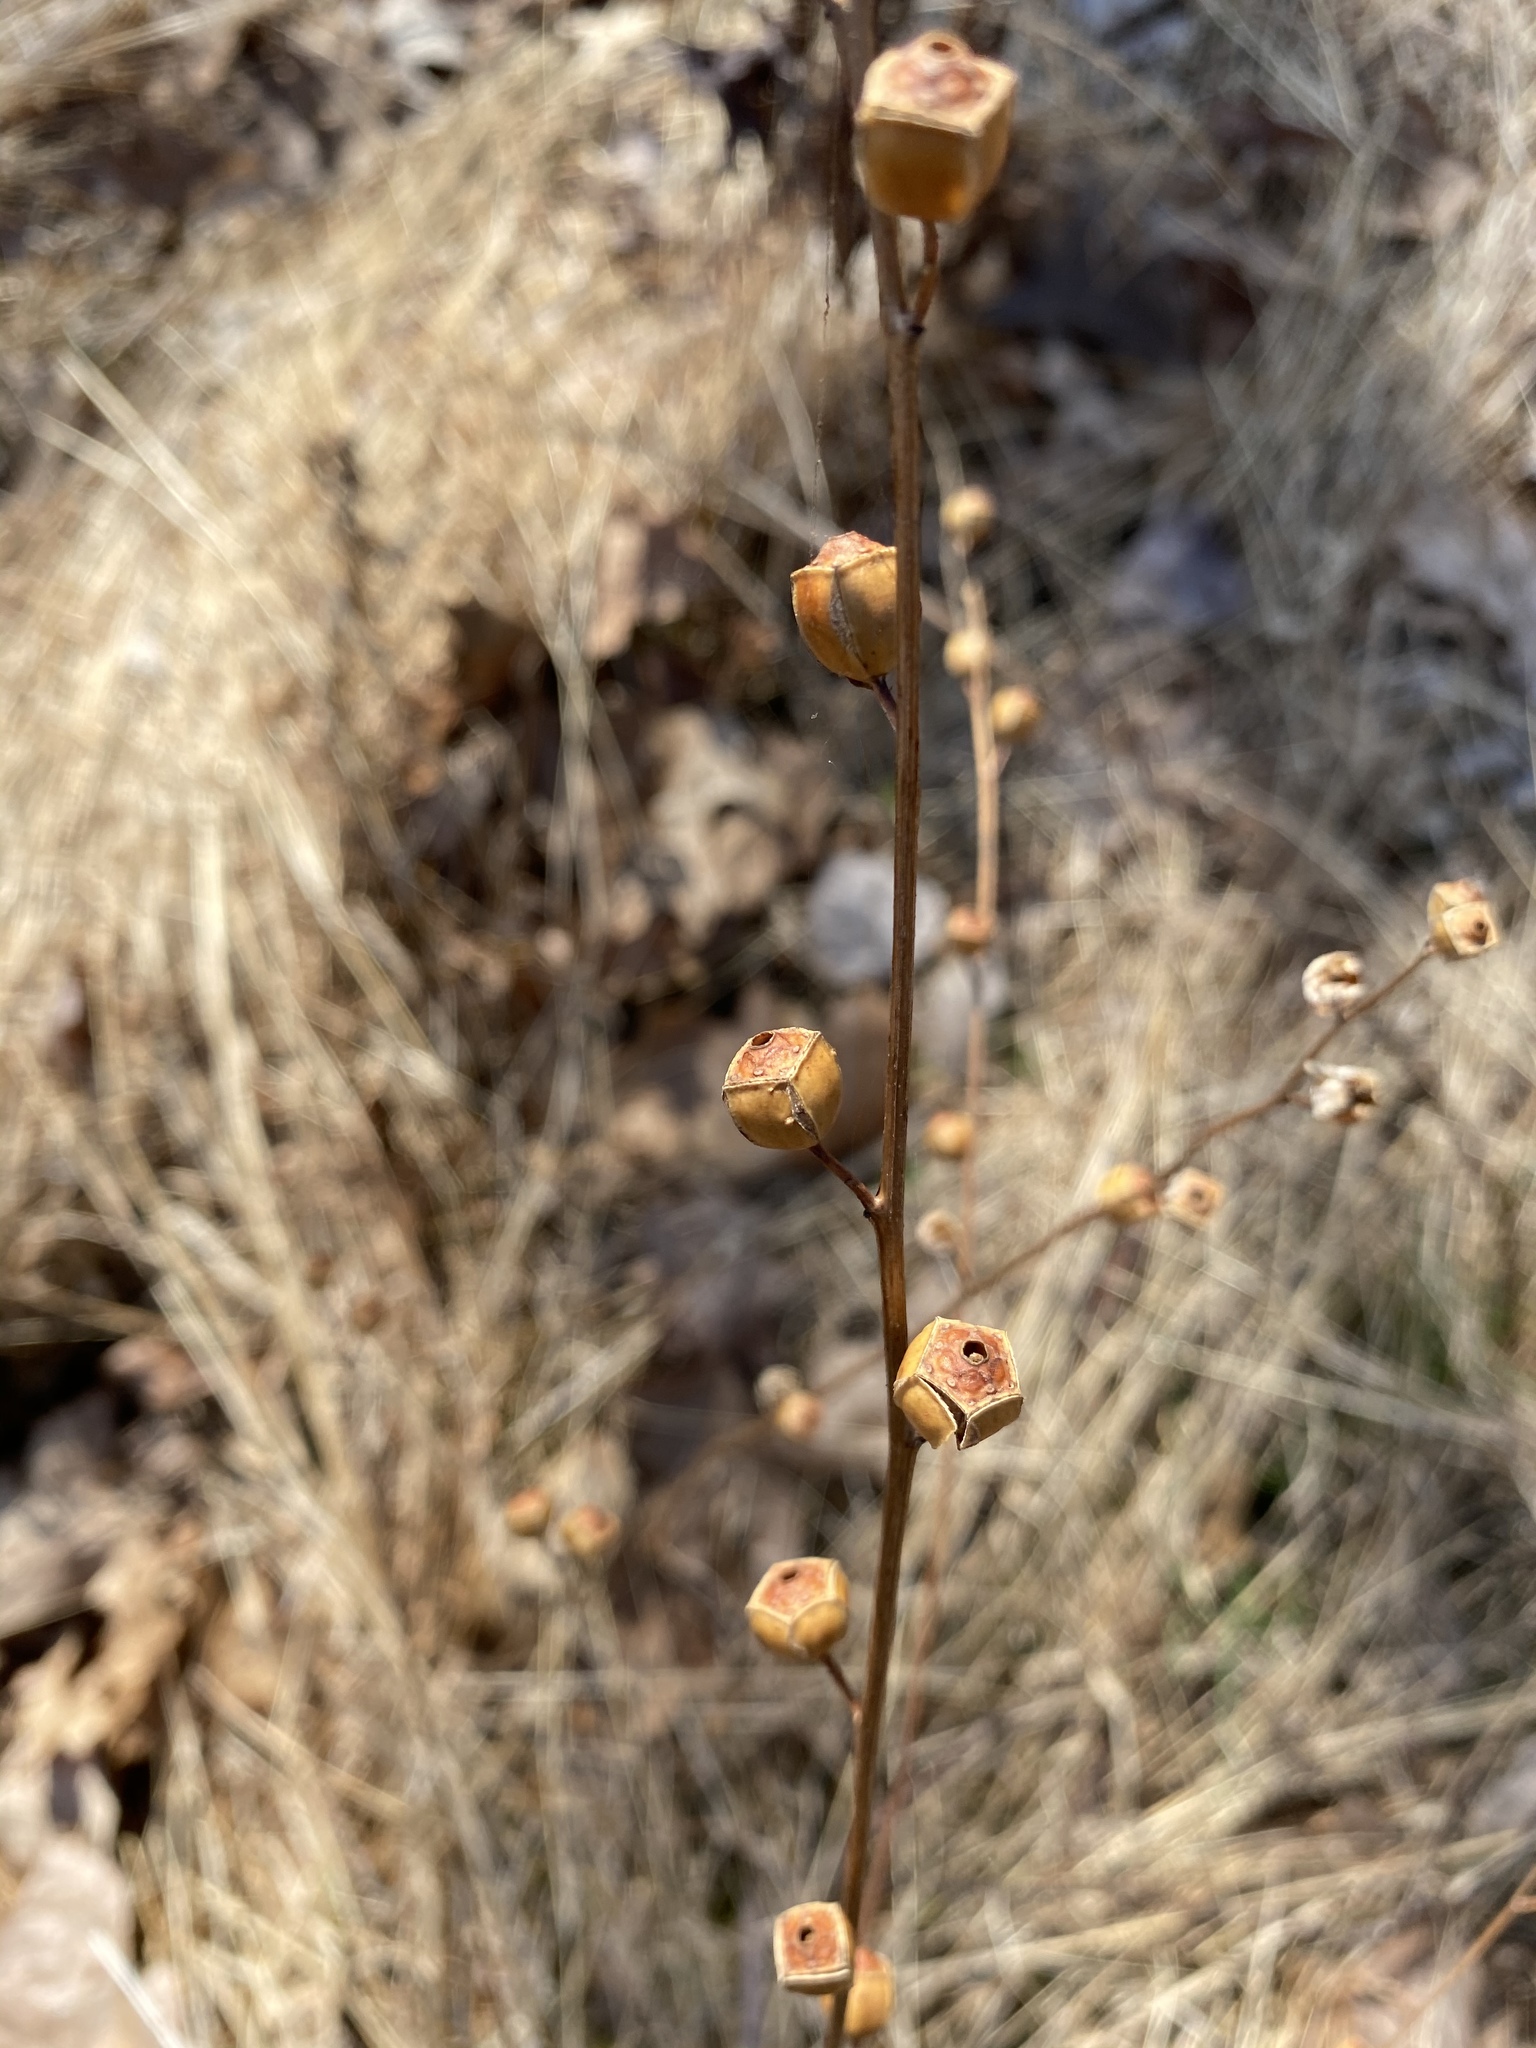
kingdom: Plantae
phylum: Tracheophyta
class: Magnoliopsida
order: Myrtales
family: Onagraceae
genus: Ludwigia
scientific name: Ludwigia alternifolia
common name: Rattlebox
